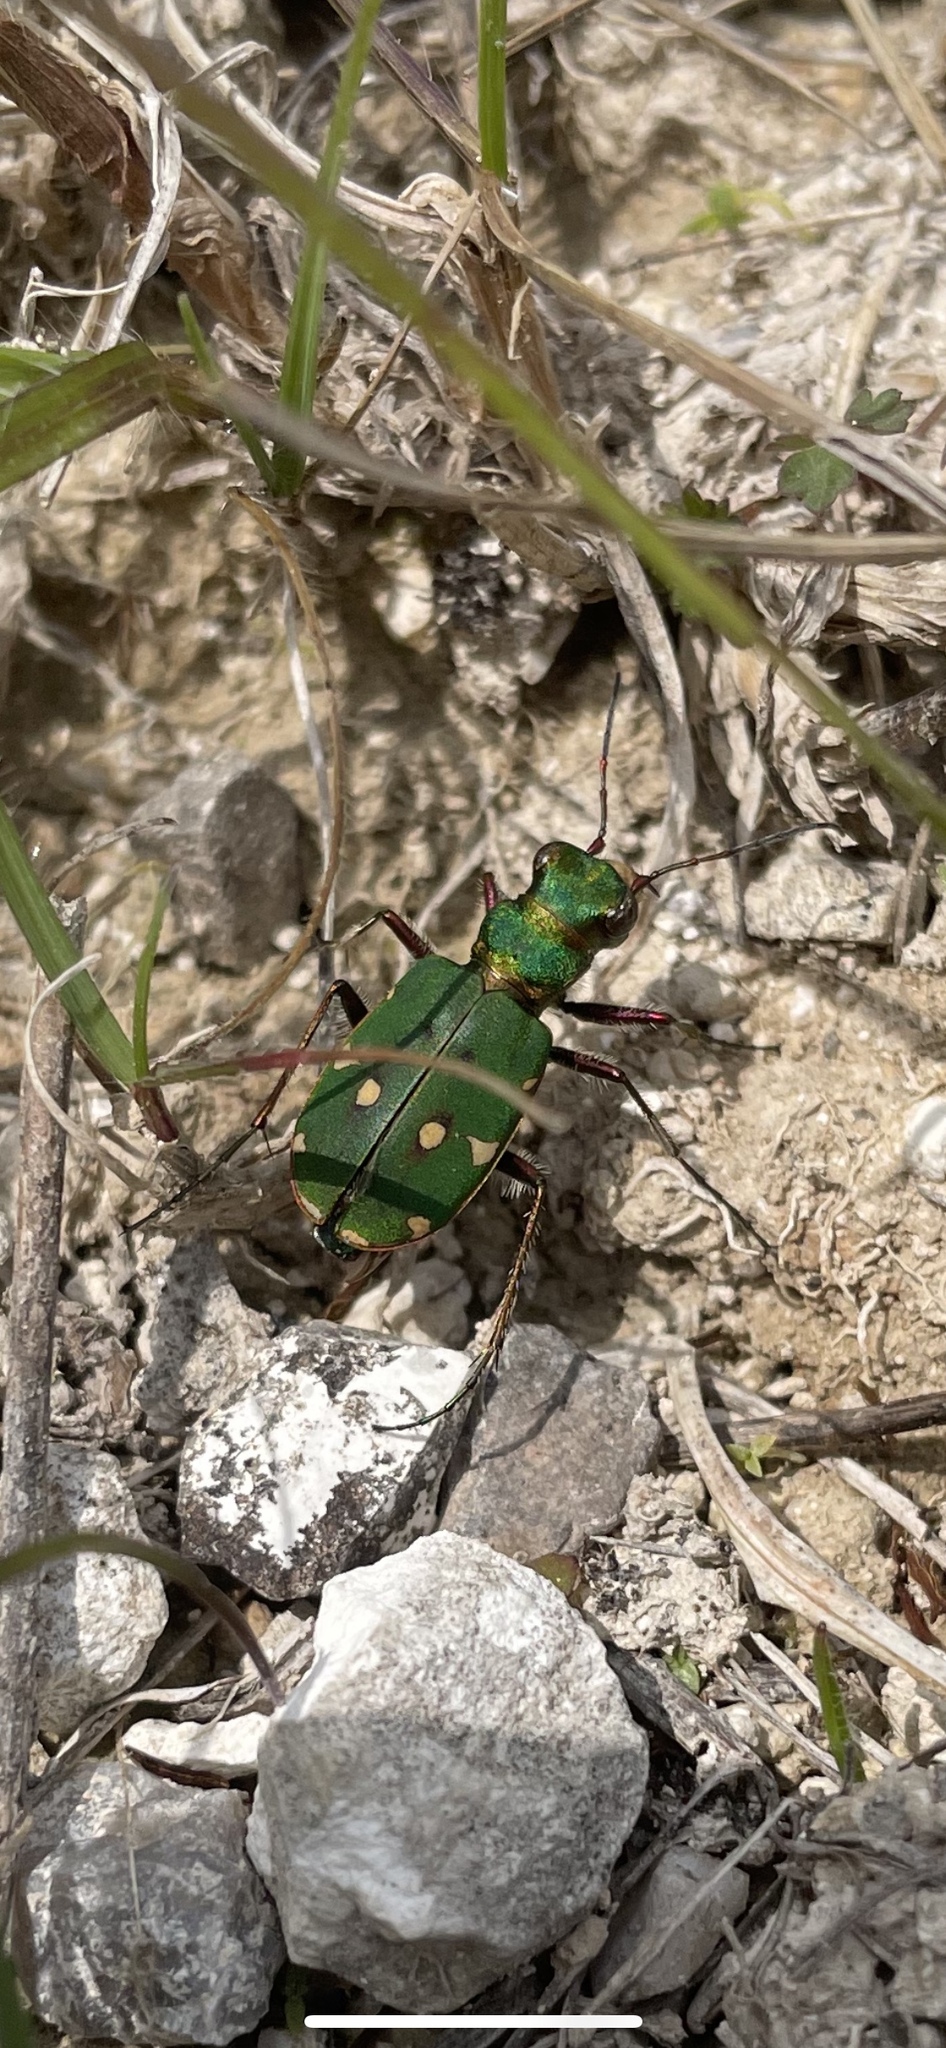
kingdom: Animalia
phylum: Arthropoda
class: Insecta
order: Coleoptera
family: Carabidae
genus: Cicindela
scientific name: Cicindela campestris
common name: Common tiger beetle
